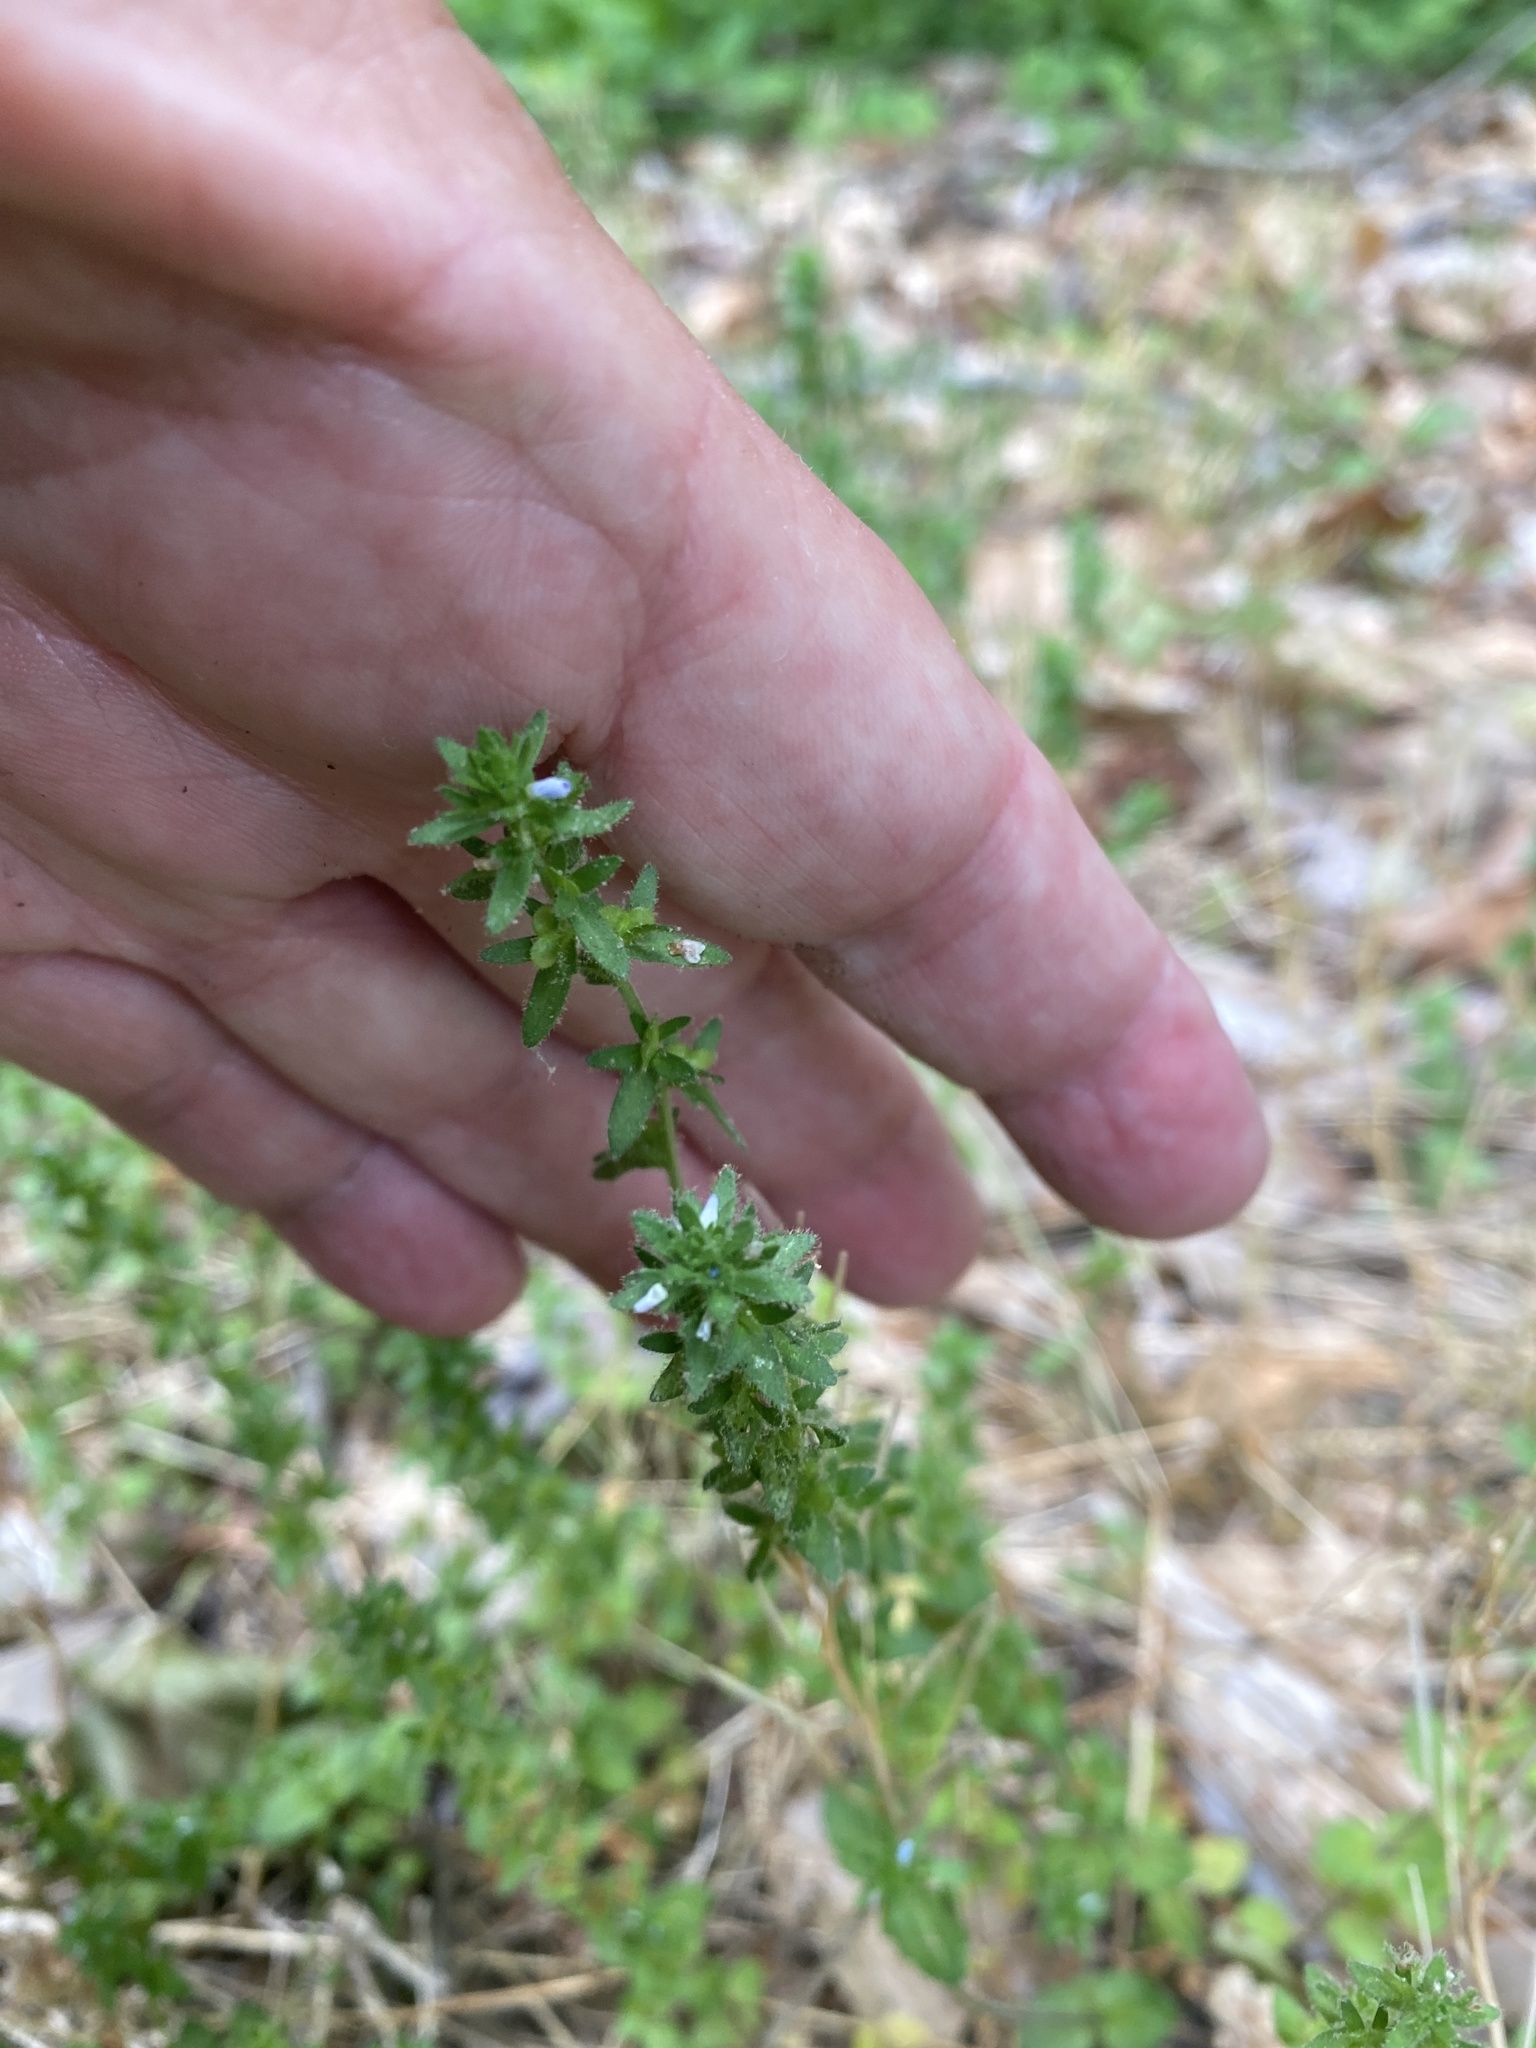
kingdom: Plantae
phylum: Tracheophyta
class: Magnoliopsida
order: Lamiales
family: Plantaginaceae
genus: Veronica
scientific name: Veronica arvensis
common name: Corn speedwell
